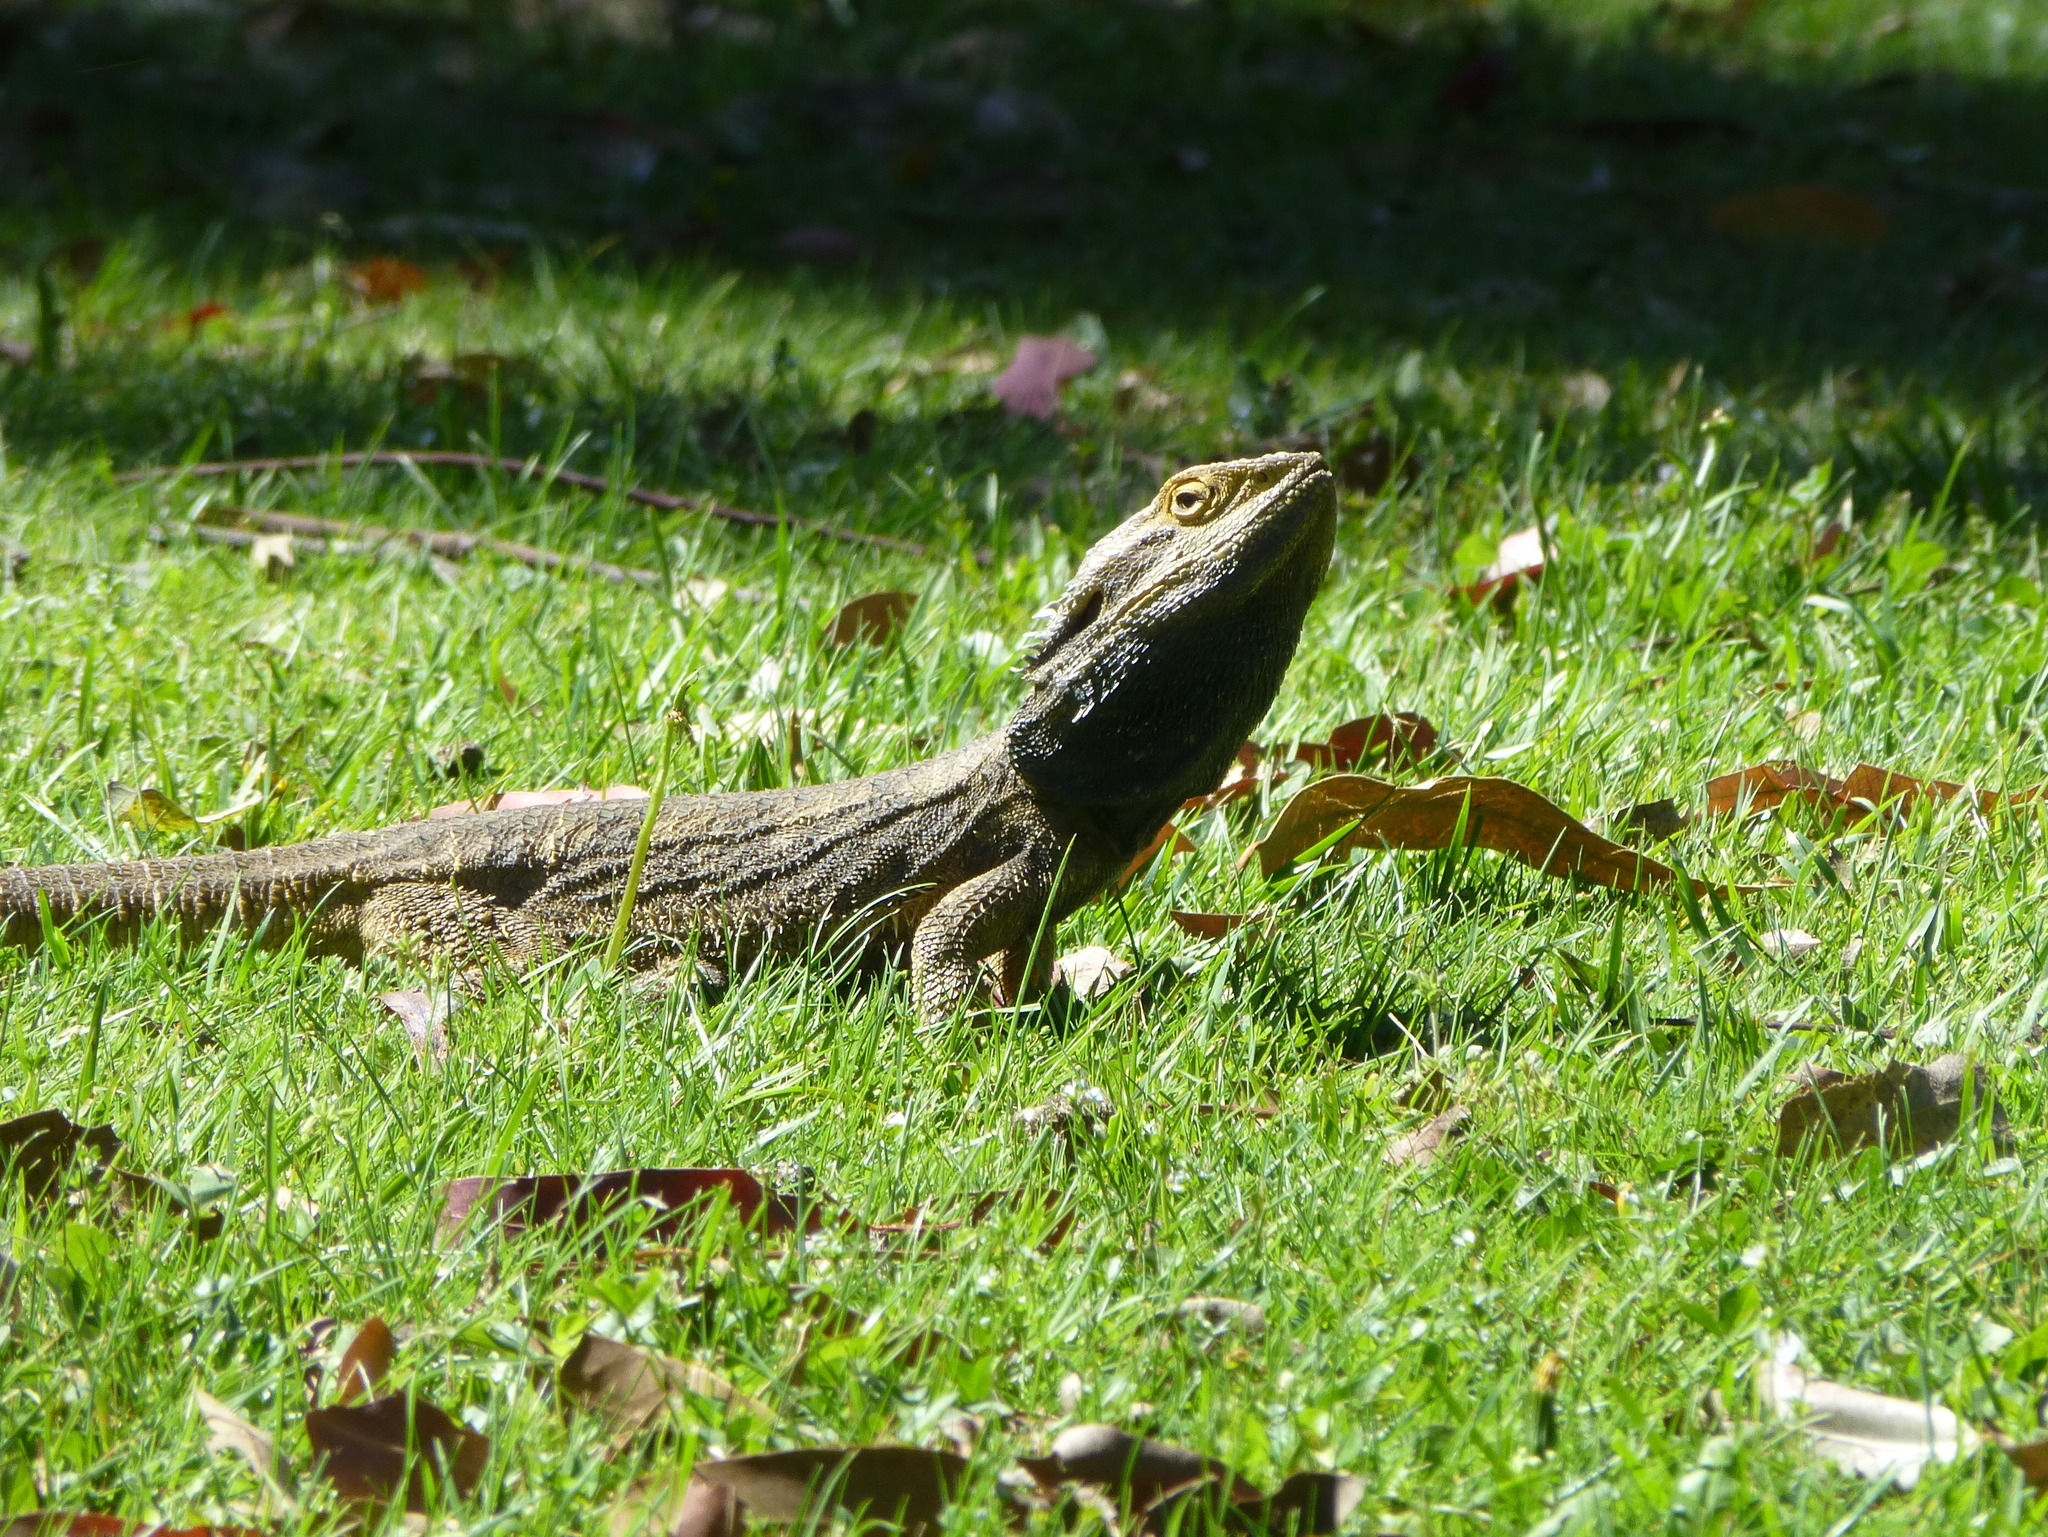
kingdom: Animalia
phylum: Chordata
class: Squamata
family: Agamidae
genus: Pogona
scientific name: Pogona barbata
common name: Bearded dragon
